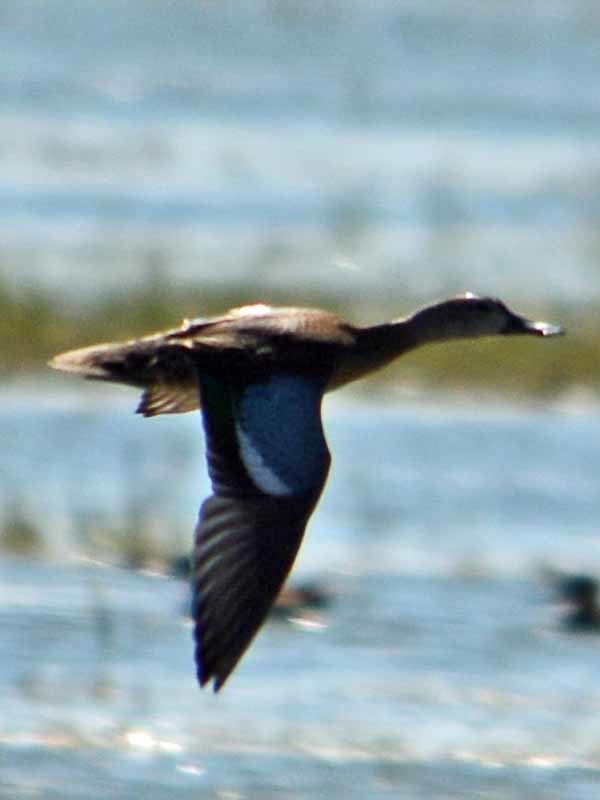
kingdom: Animalia
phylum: Chordata
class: Aves
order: Anseriformes
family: Anatidae
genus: Spatula
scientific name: Spatula discors
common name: Blue-winged teal
